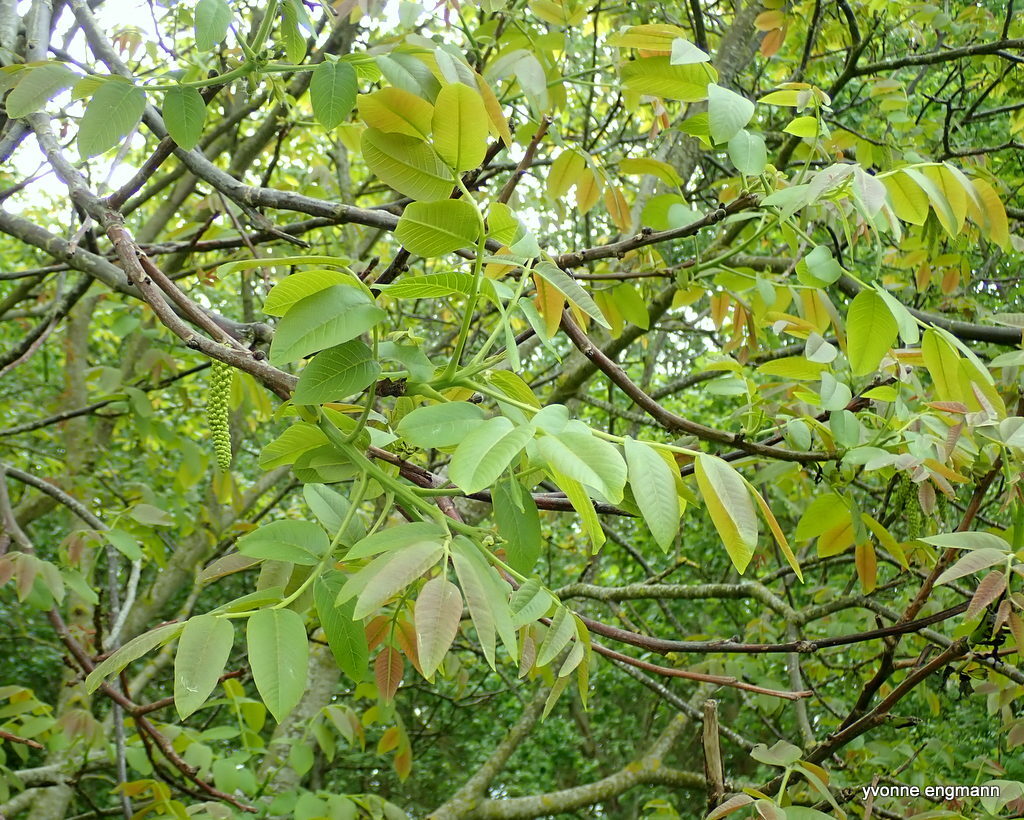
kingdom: Plantae
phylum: Tracheophyta
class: Magnoliopsida
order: Fagales
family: Juglandaceae
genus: Juglans
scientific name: Juglans regia
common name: Walnut
